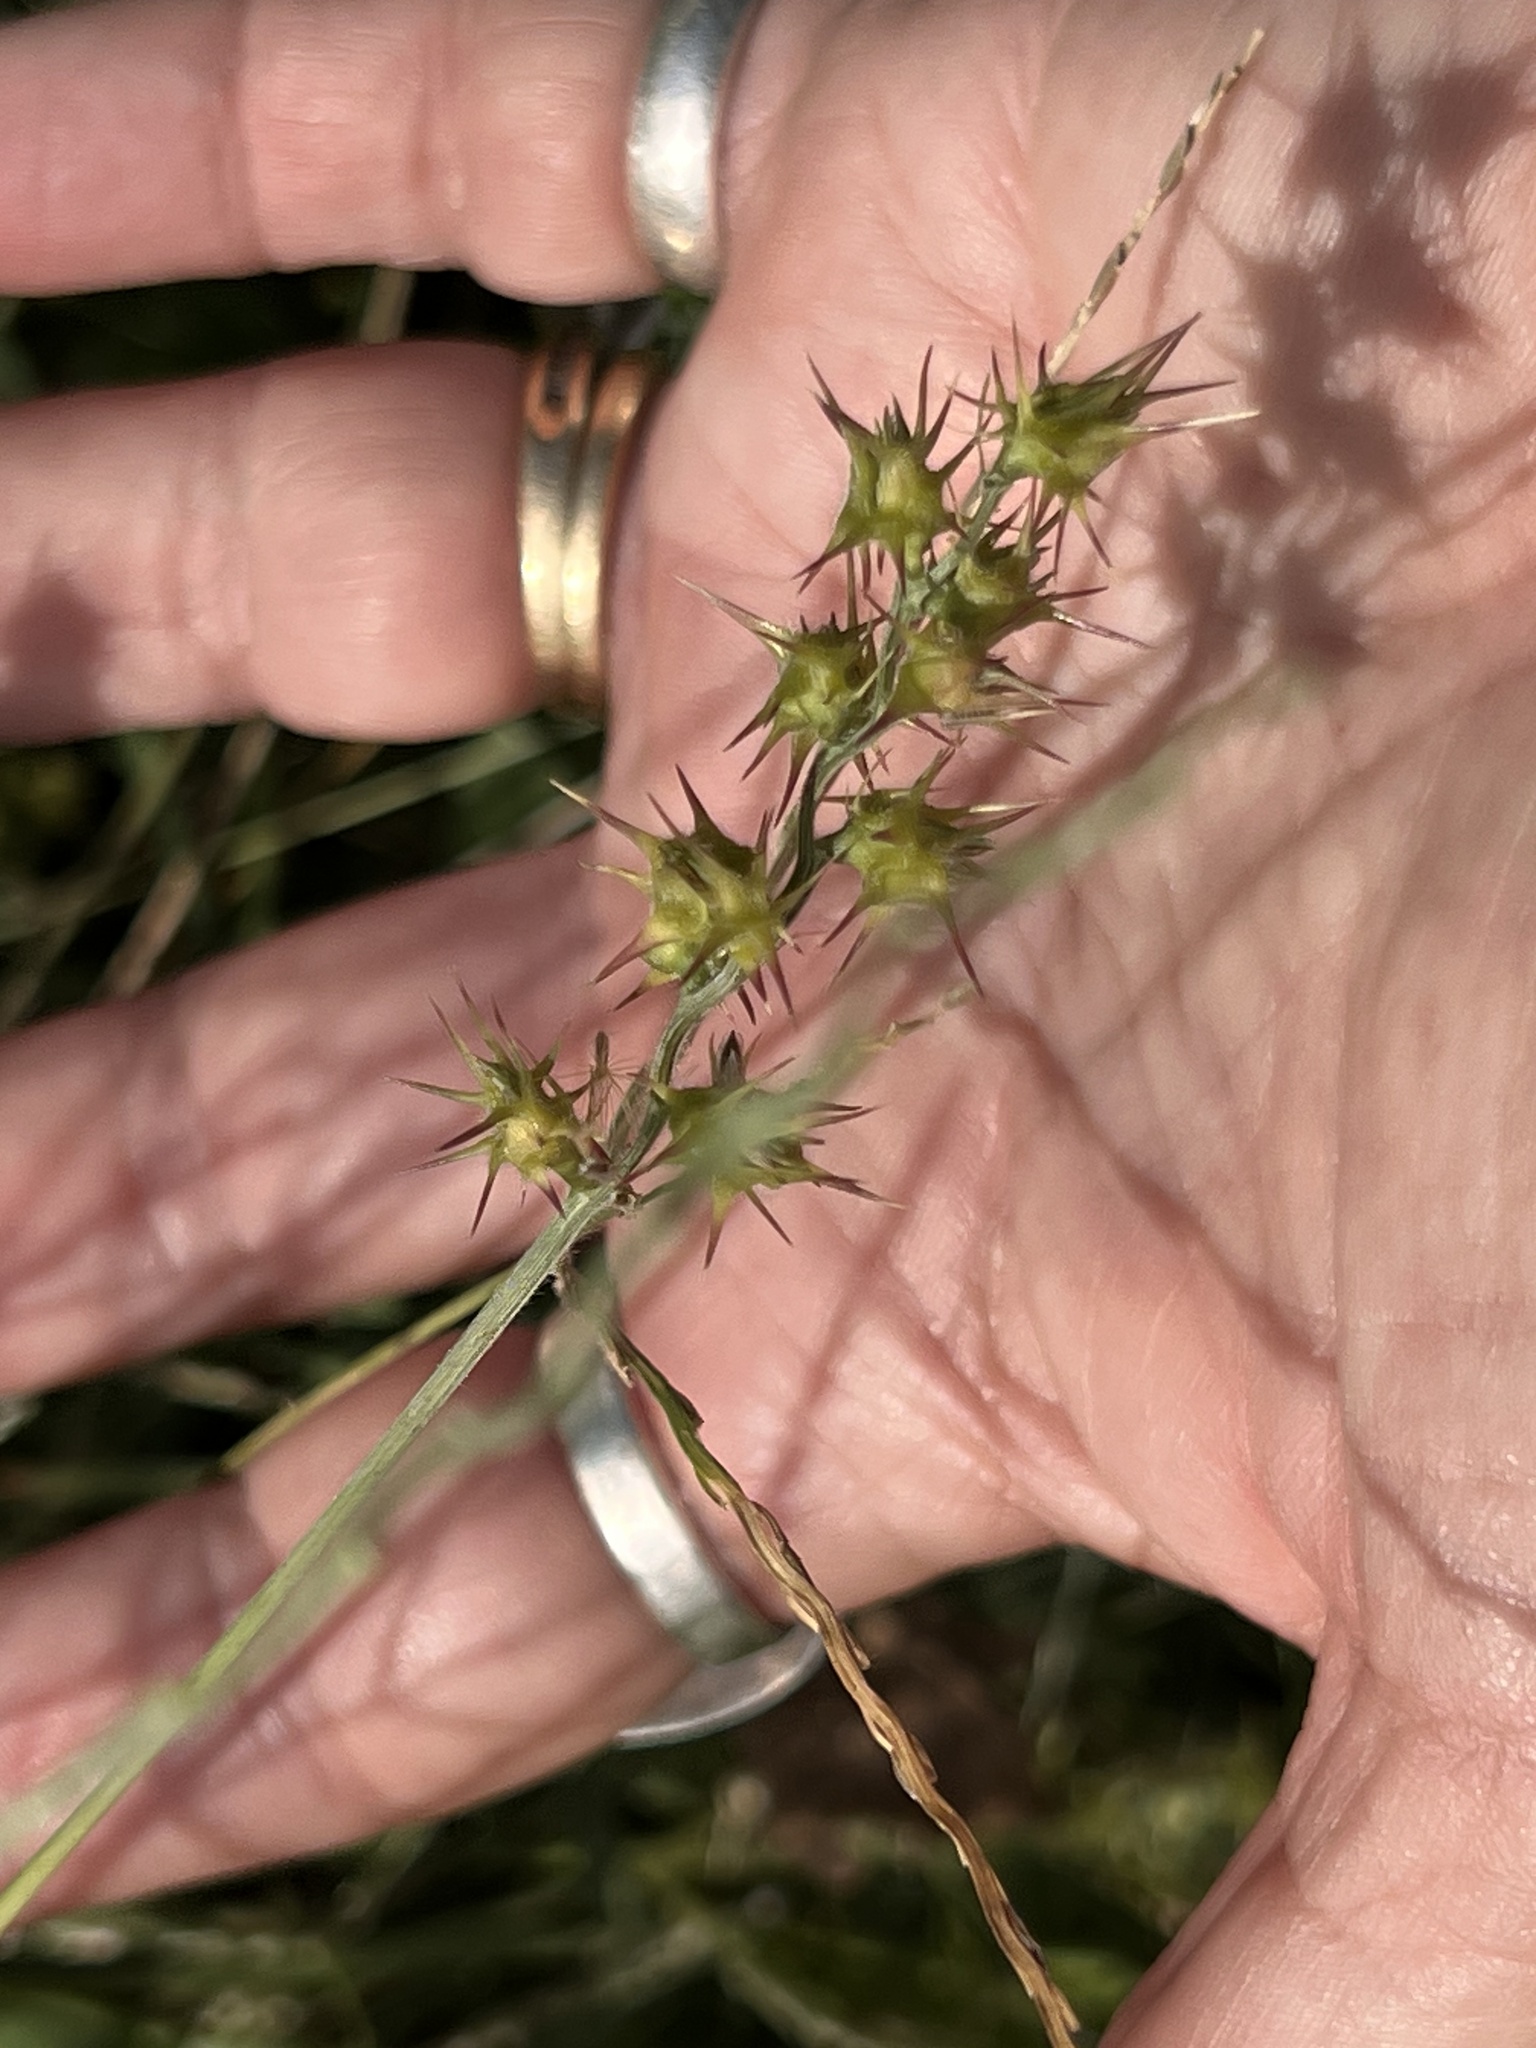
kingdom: Plantae
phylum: Tracheophyta
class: Liliopsida
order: Poales
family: Poaceae
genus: Cenchrus
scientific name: Cenchrus spinifex
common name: Coast sandbur
